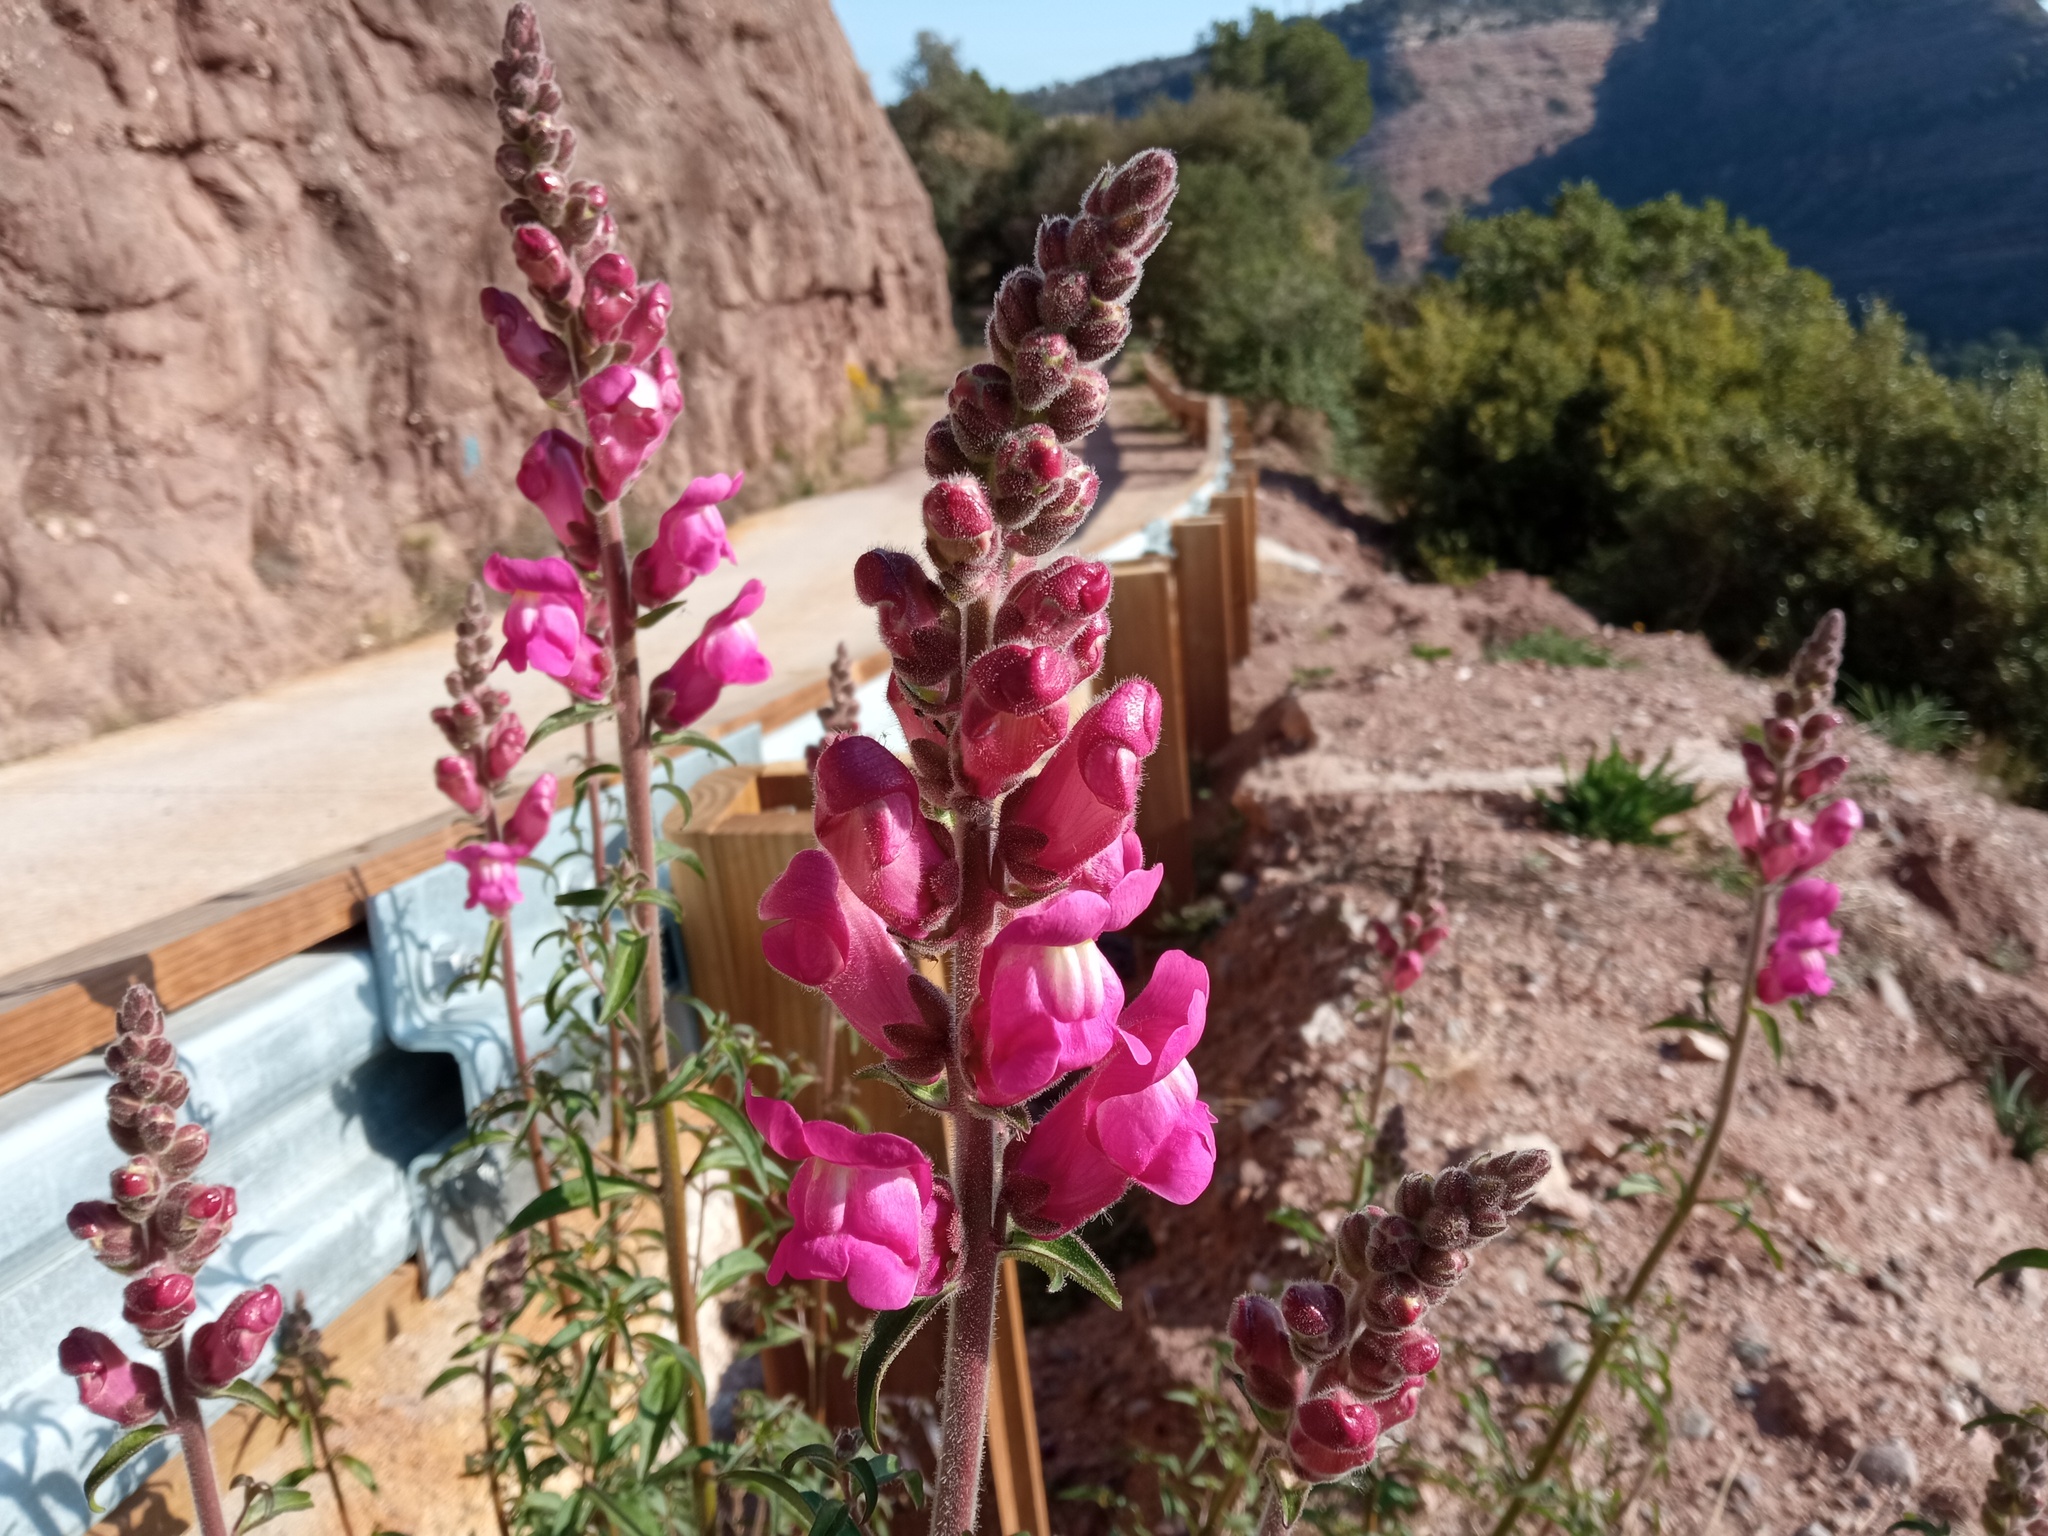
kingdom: Plantae
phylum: Tracheophyta
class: Magnoliopsida
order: Lamiales
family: Plantaginaceae
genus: Antirrhinum
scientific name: Antirrhinum majus
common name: Snapdragon
